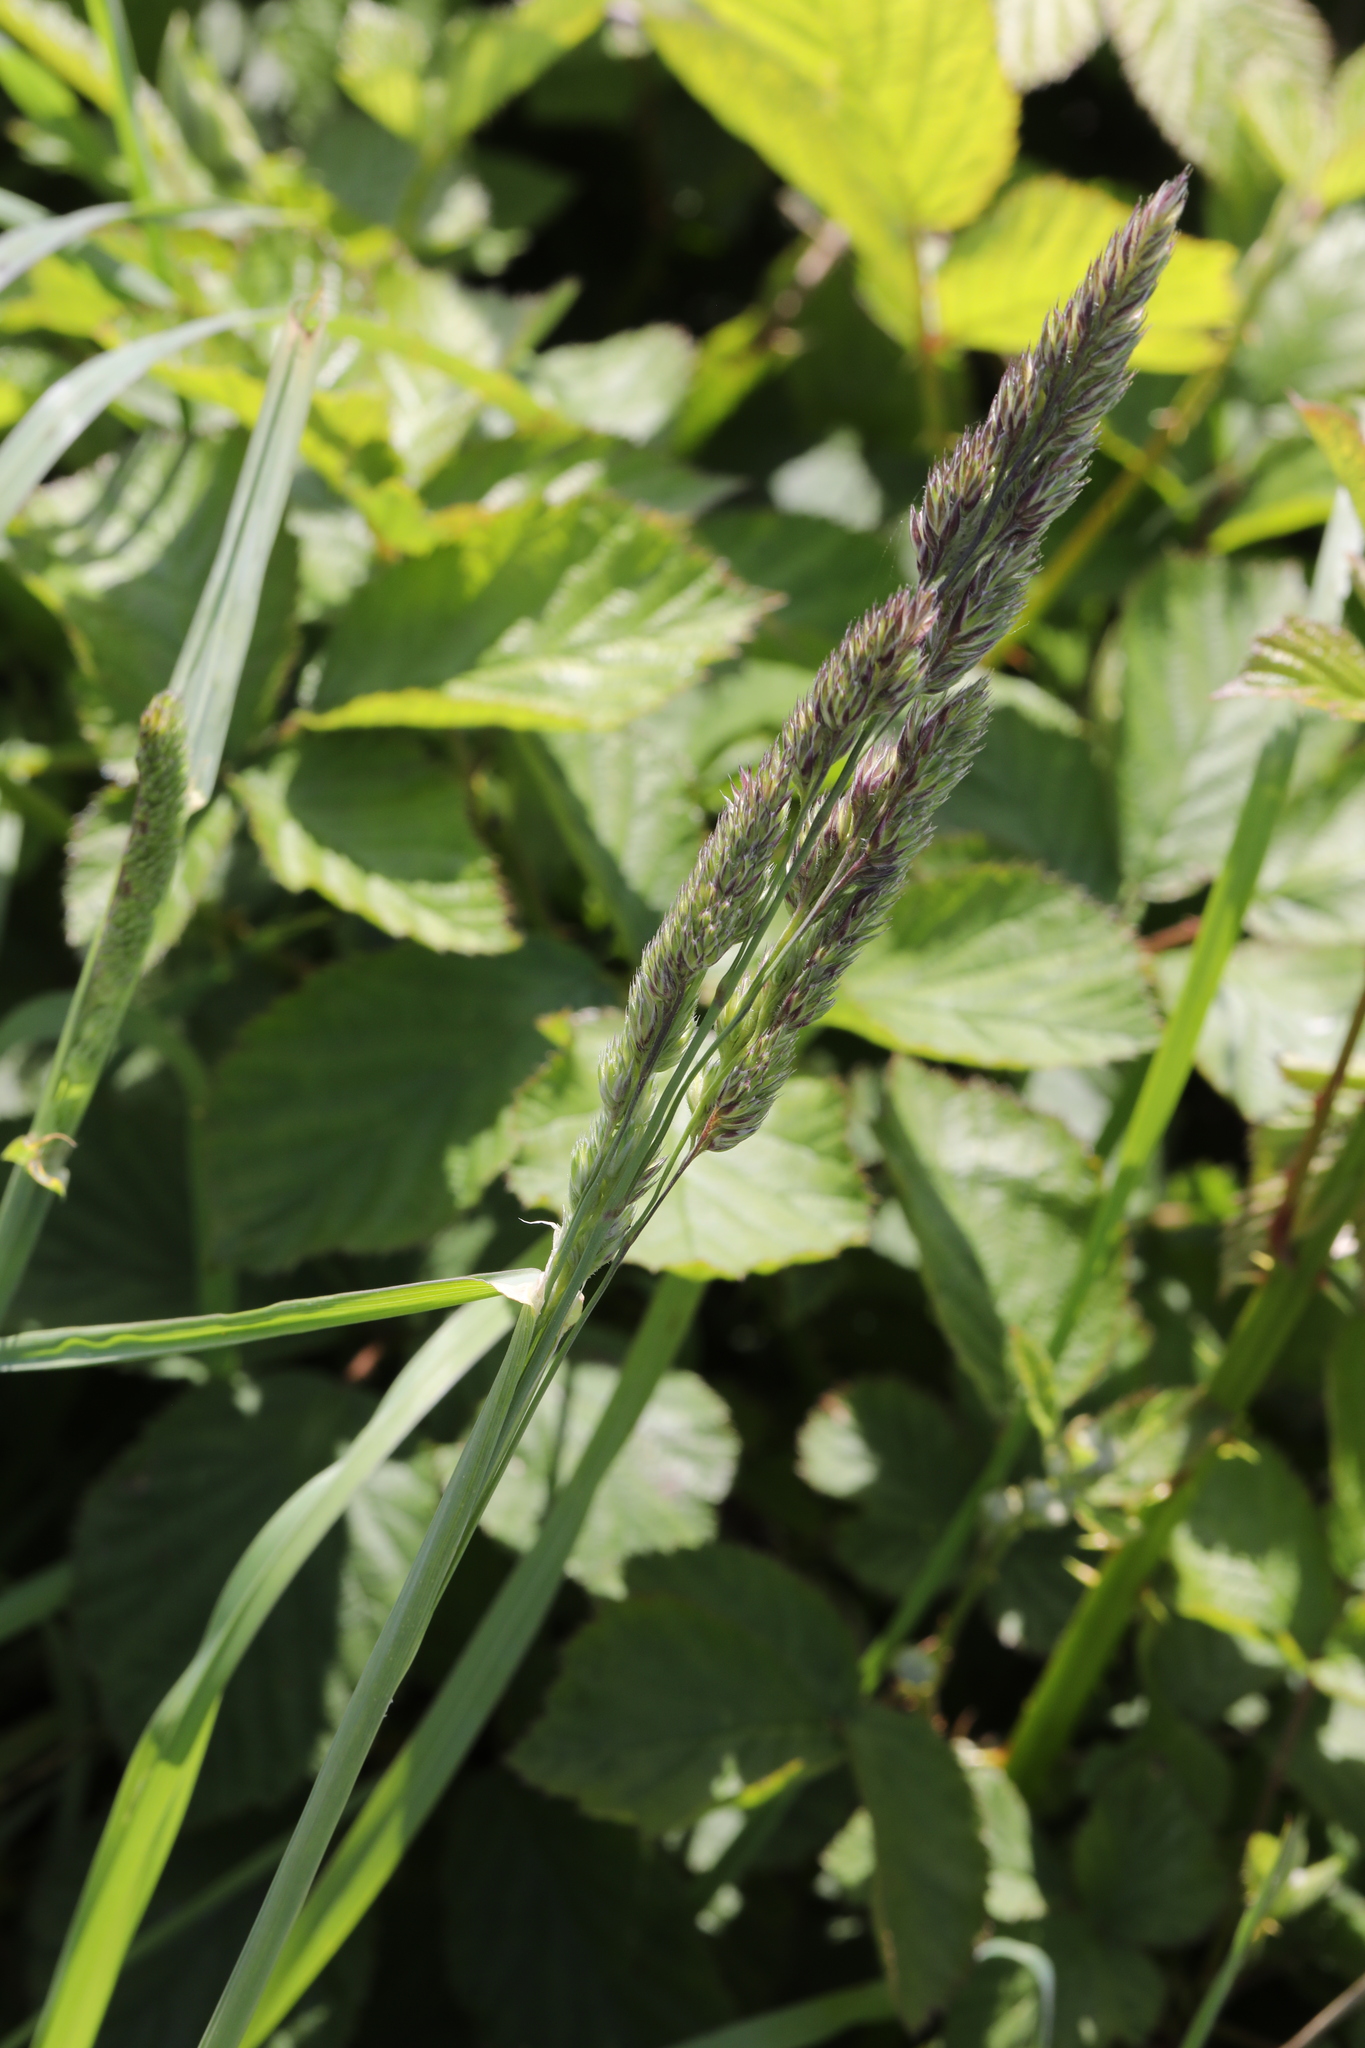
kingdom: Plantae
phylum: Tracheophyta
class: Liliopsida
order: Poales
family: Poaceae
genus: Dactylis
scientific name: Dactylis glomerata
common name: Orchardgrass
